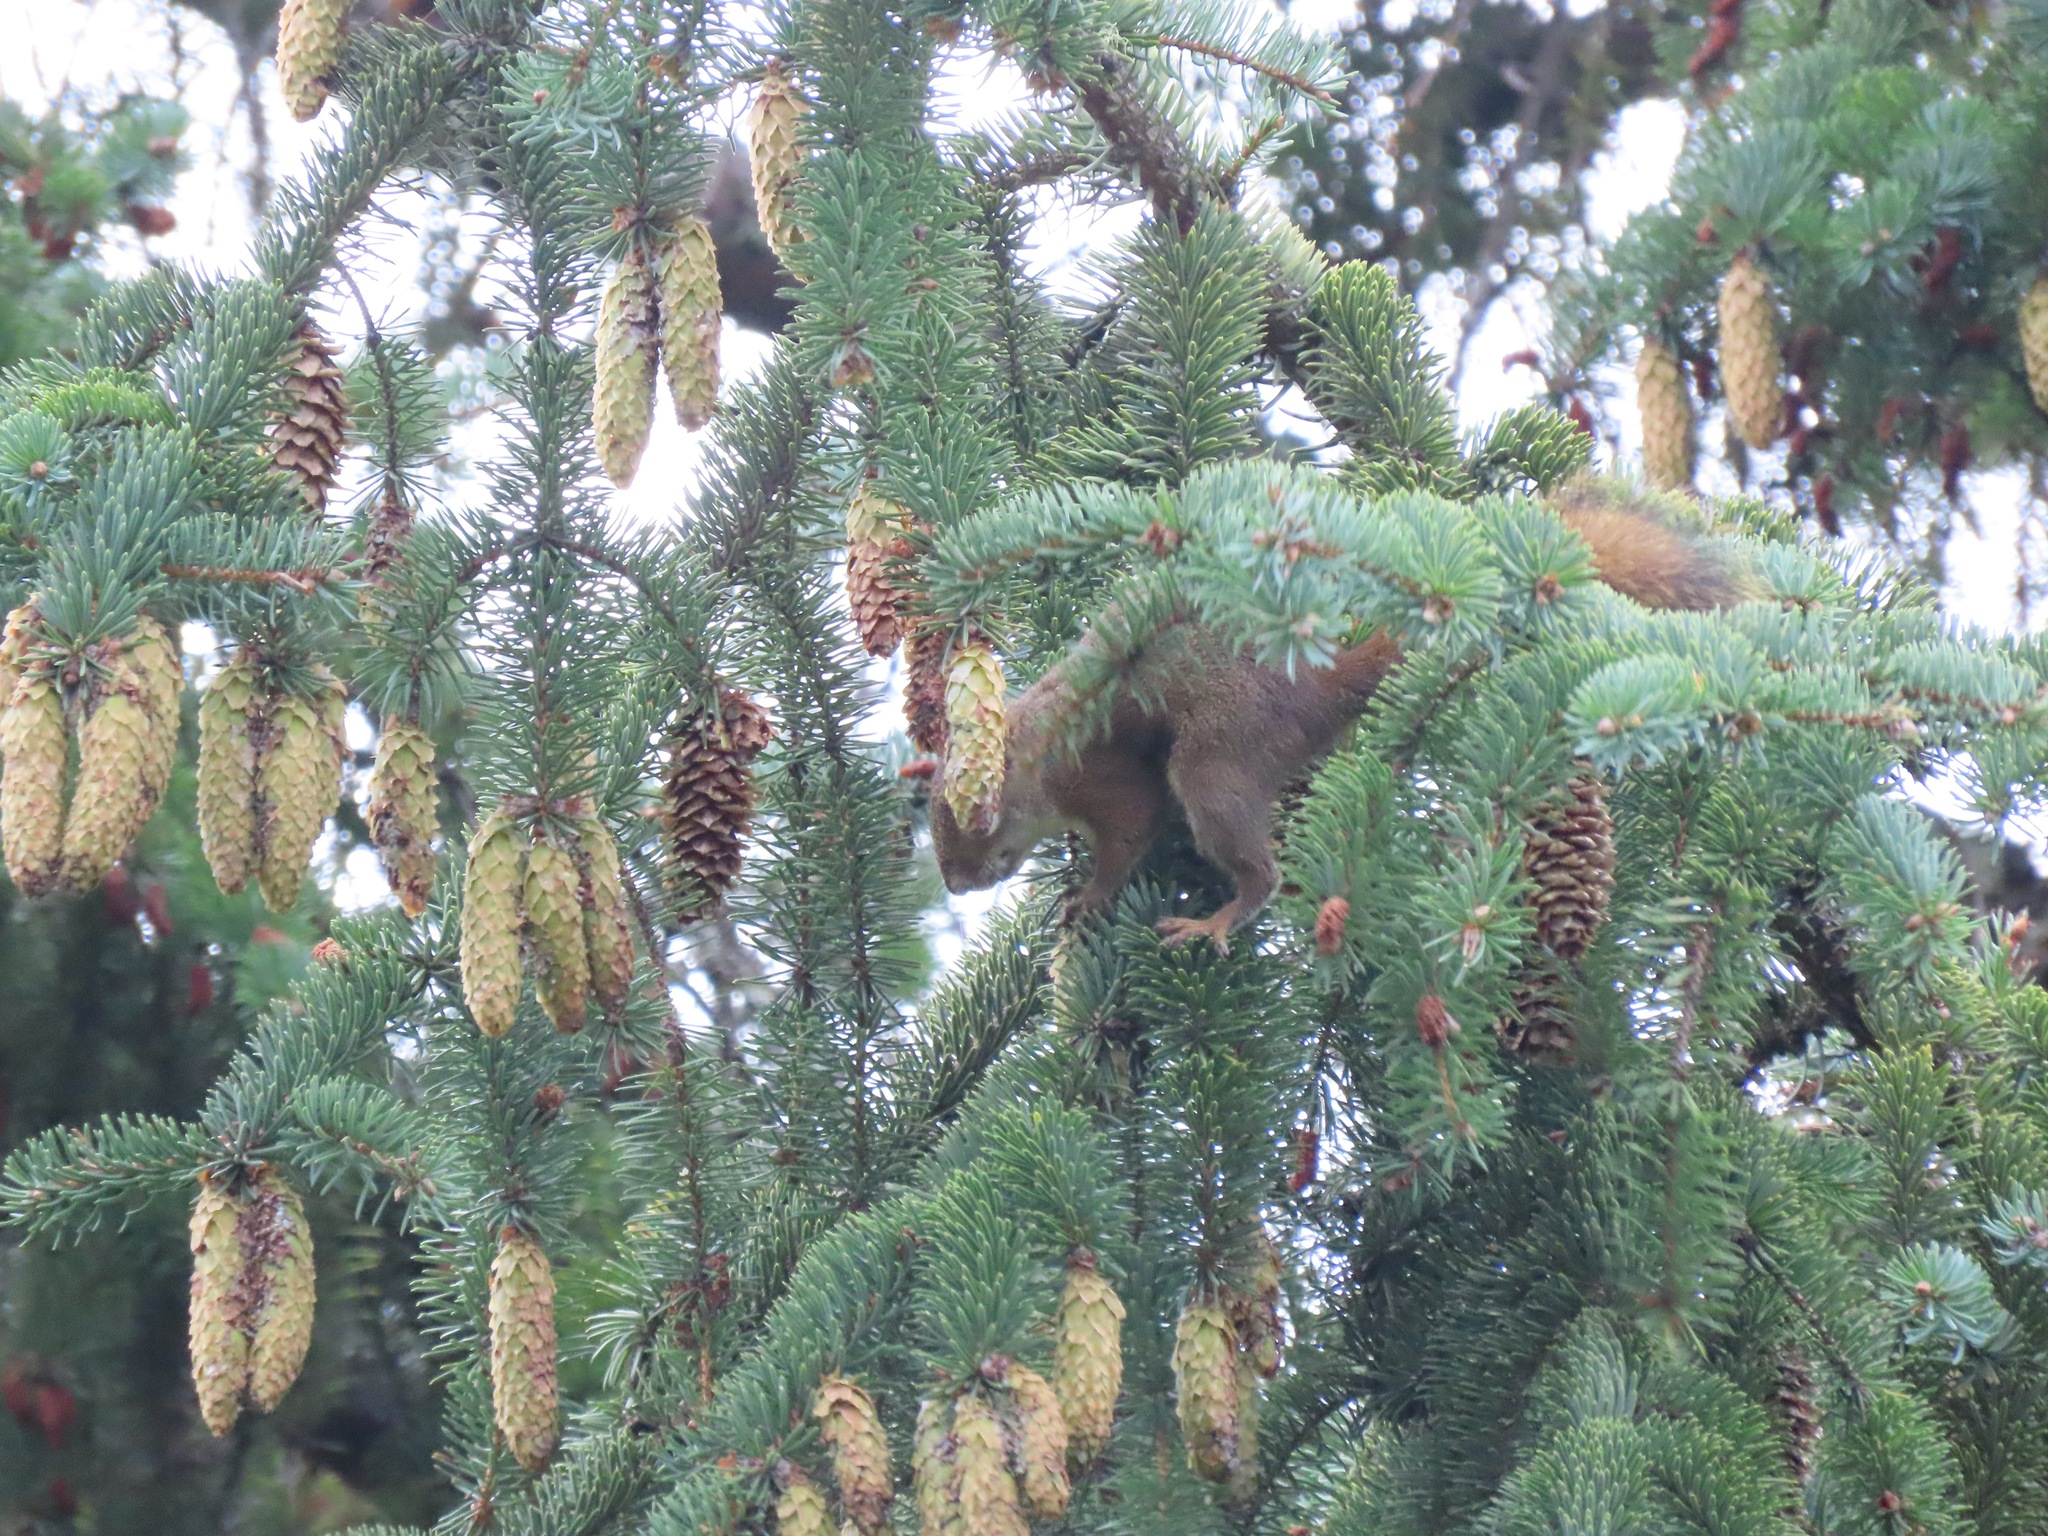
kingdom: Animalia
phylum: Chordata
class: Mammalia
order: Rodentia
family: Sciuridae
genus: Tamiasciurus
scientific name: Tamiasciurus hudsonicus
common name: Red squirrel
